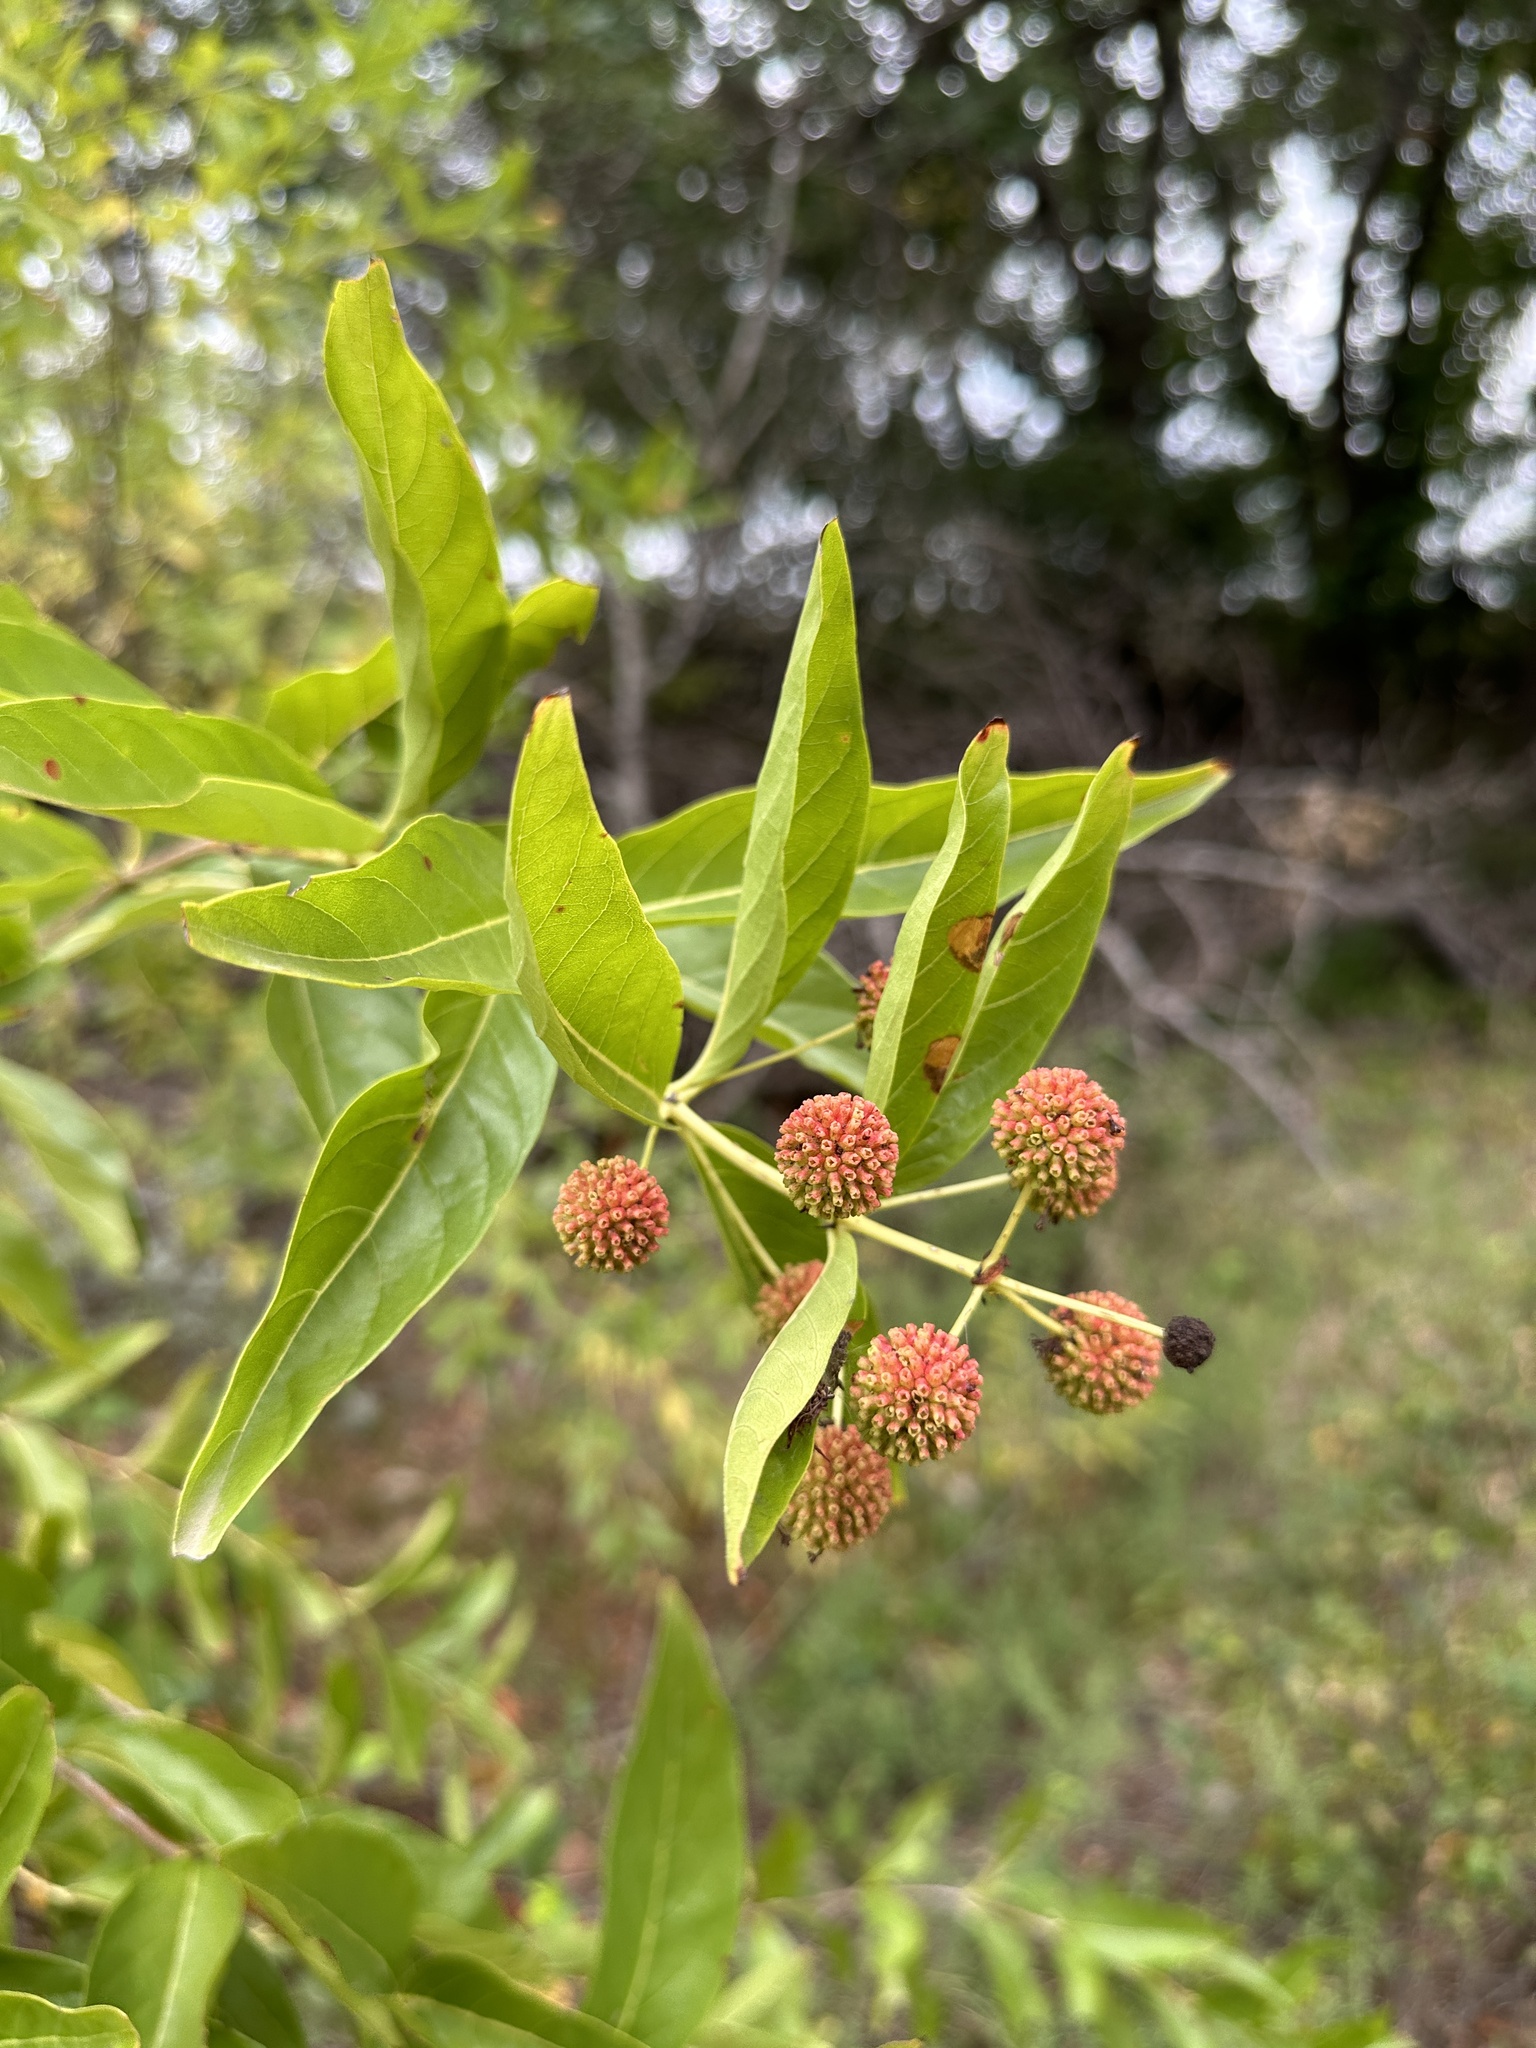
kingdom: Plantae
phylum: Tracheophyta
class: Magnoliopsida
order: Gentianales
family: Rubiaceae
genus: Cephalanthus
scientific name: Cephalanthus occidentalis
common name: Button-willow
